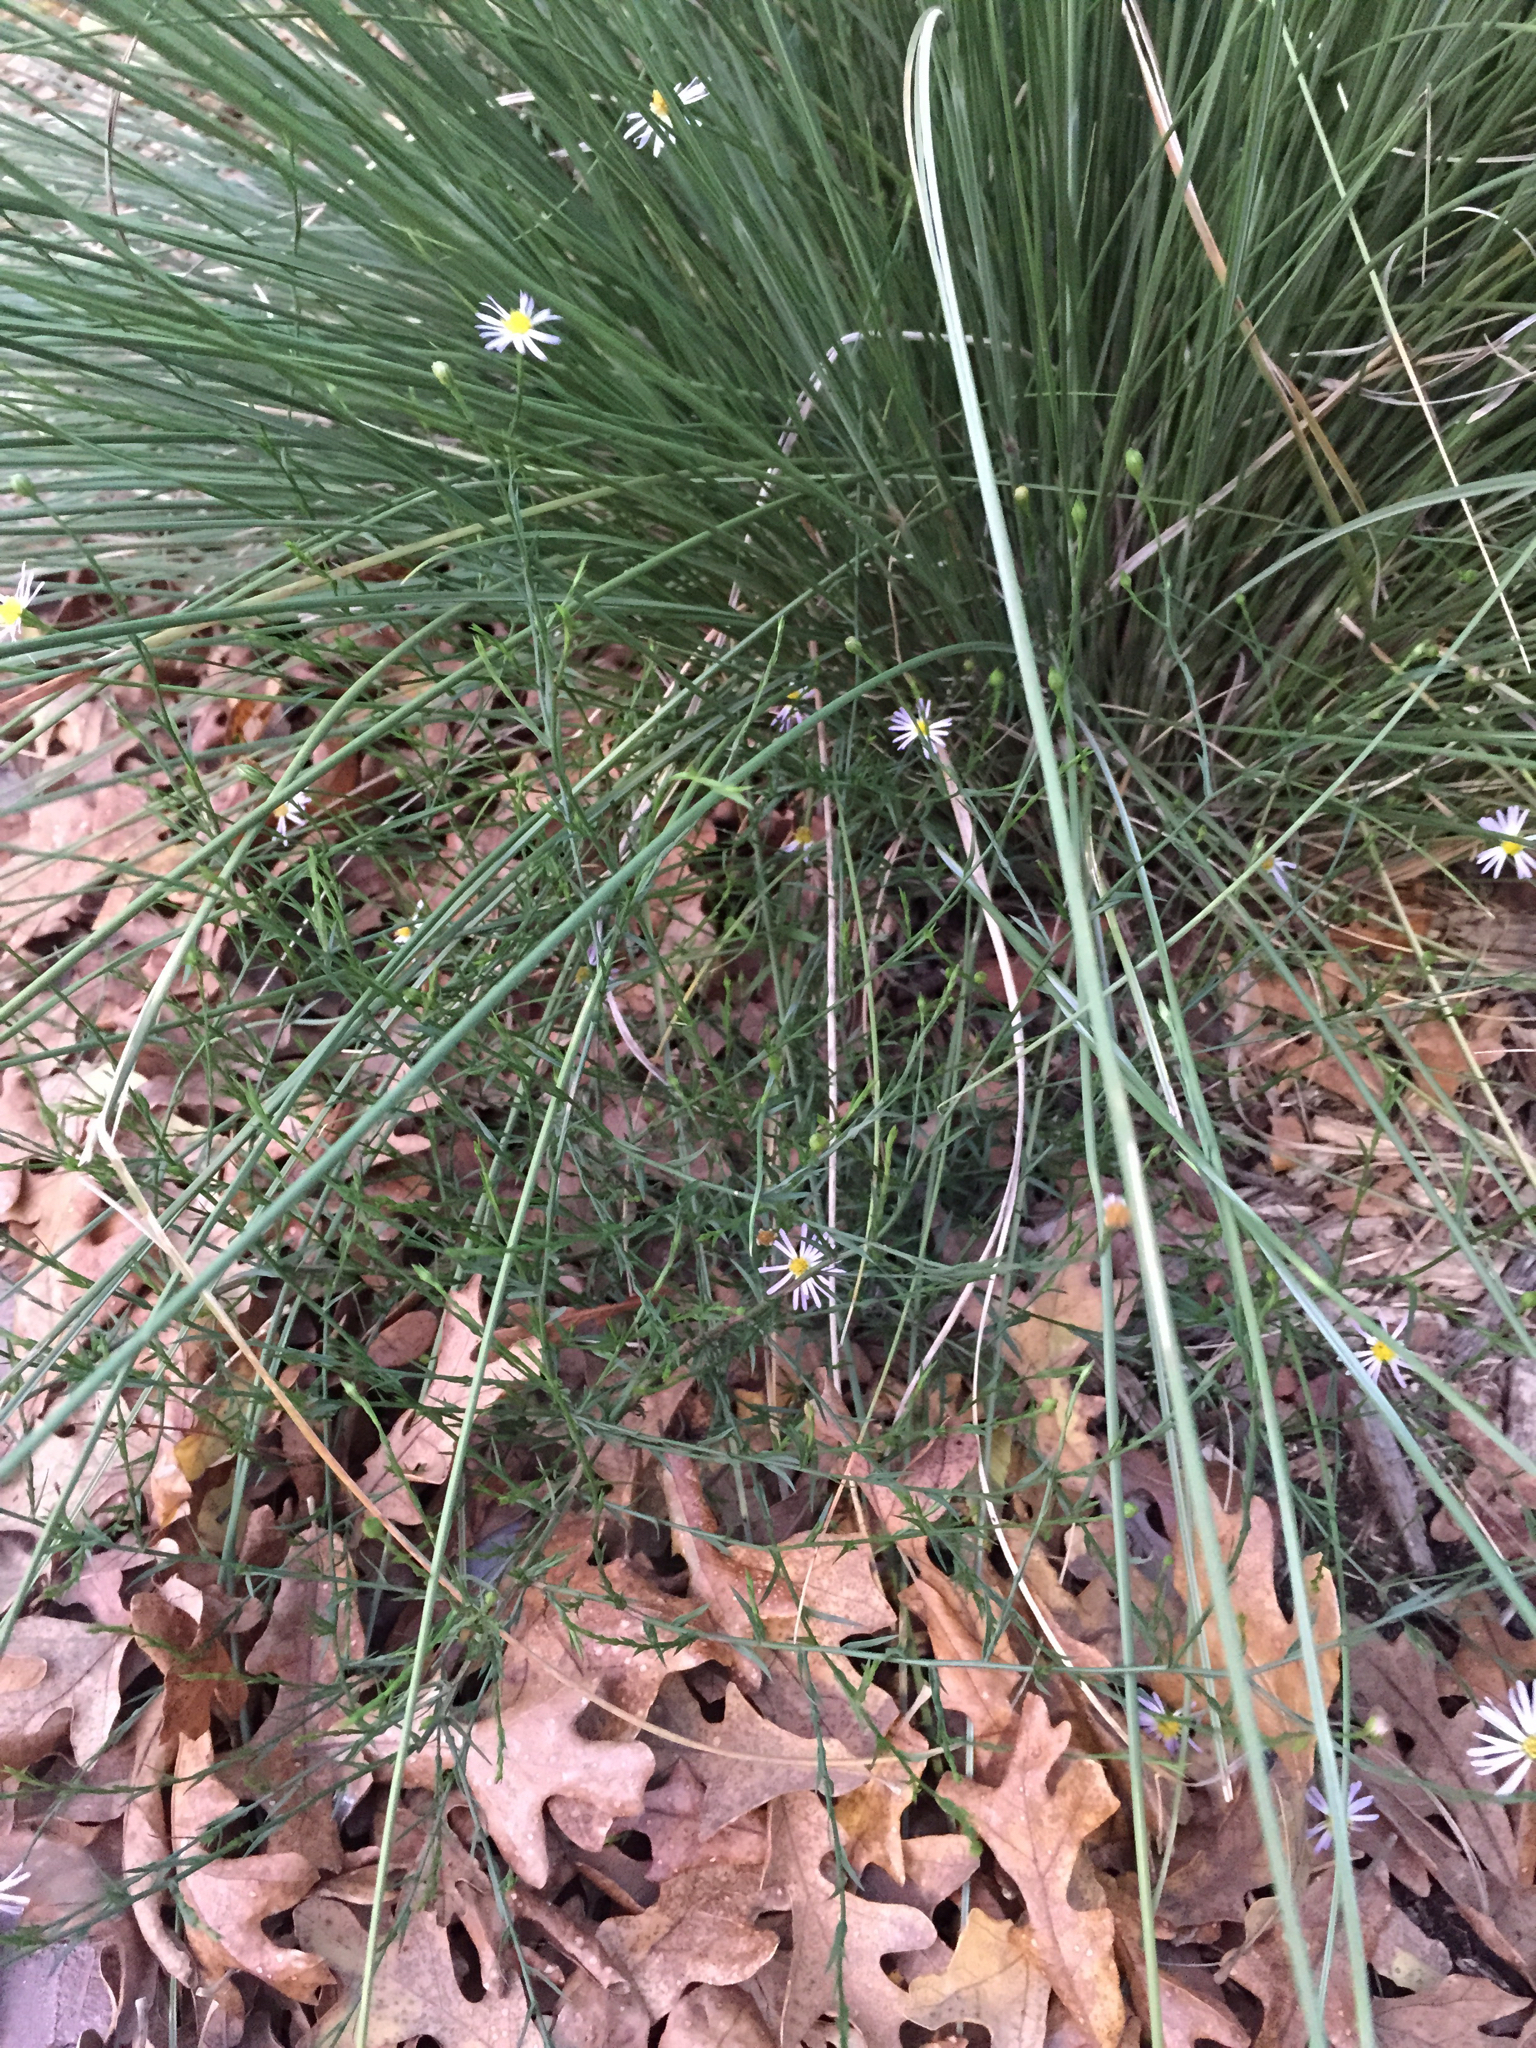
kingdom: Plantae
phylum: Tracheophyta
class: Magnoliopsida
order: Asterales
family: Asteraceae
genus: Symphyotrichum
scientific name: Symphyotrichum divaricatum
